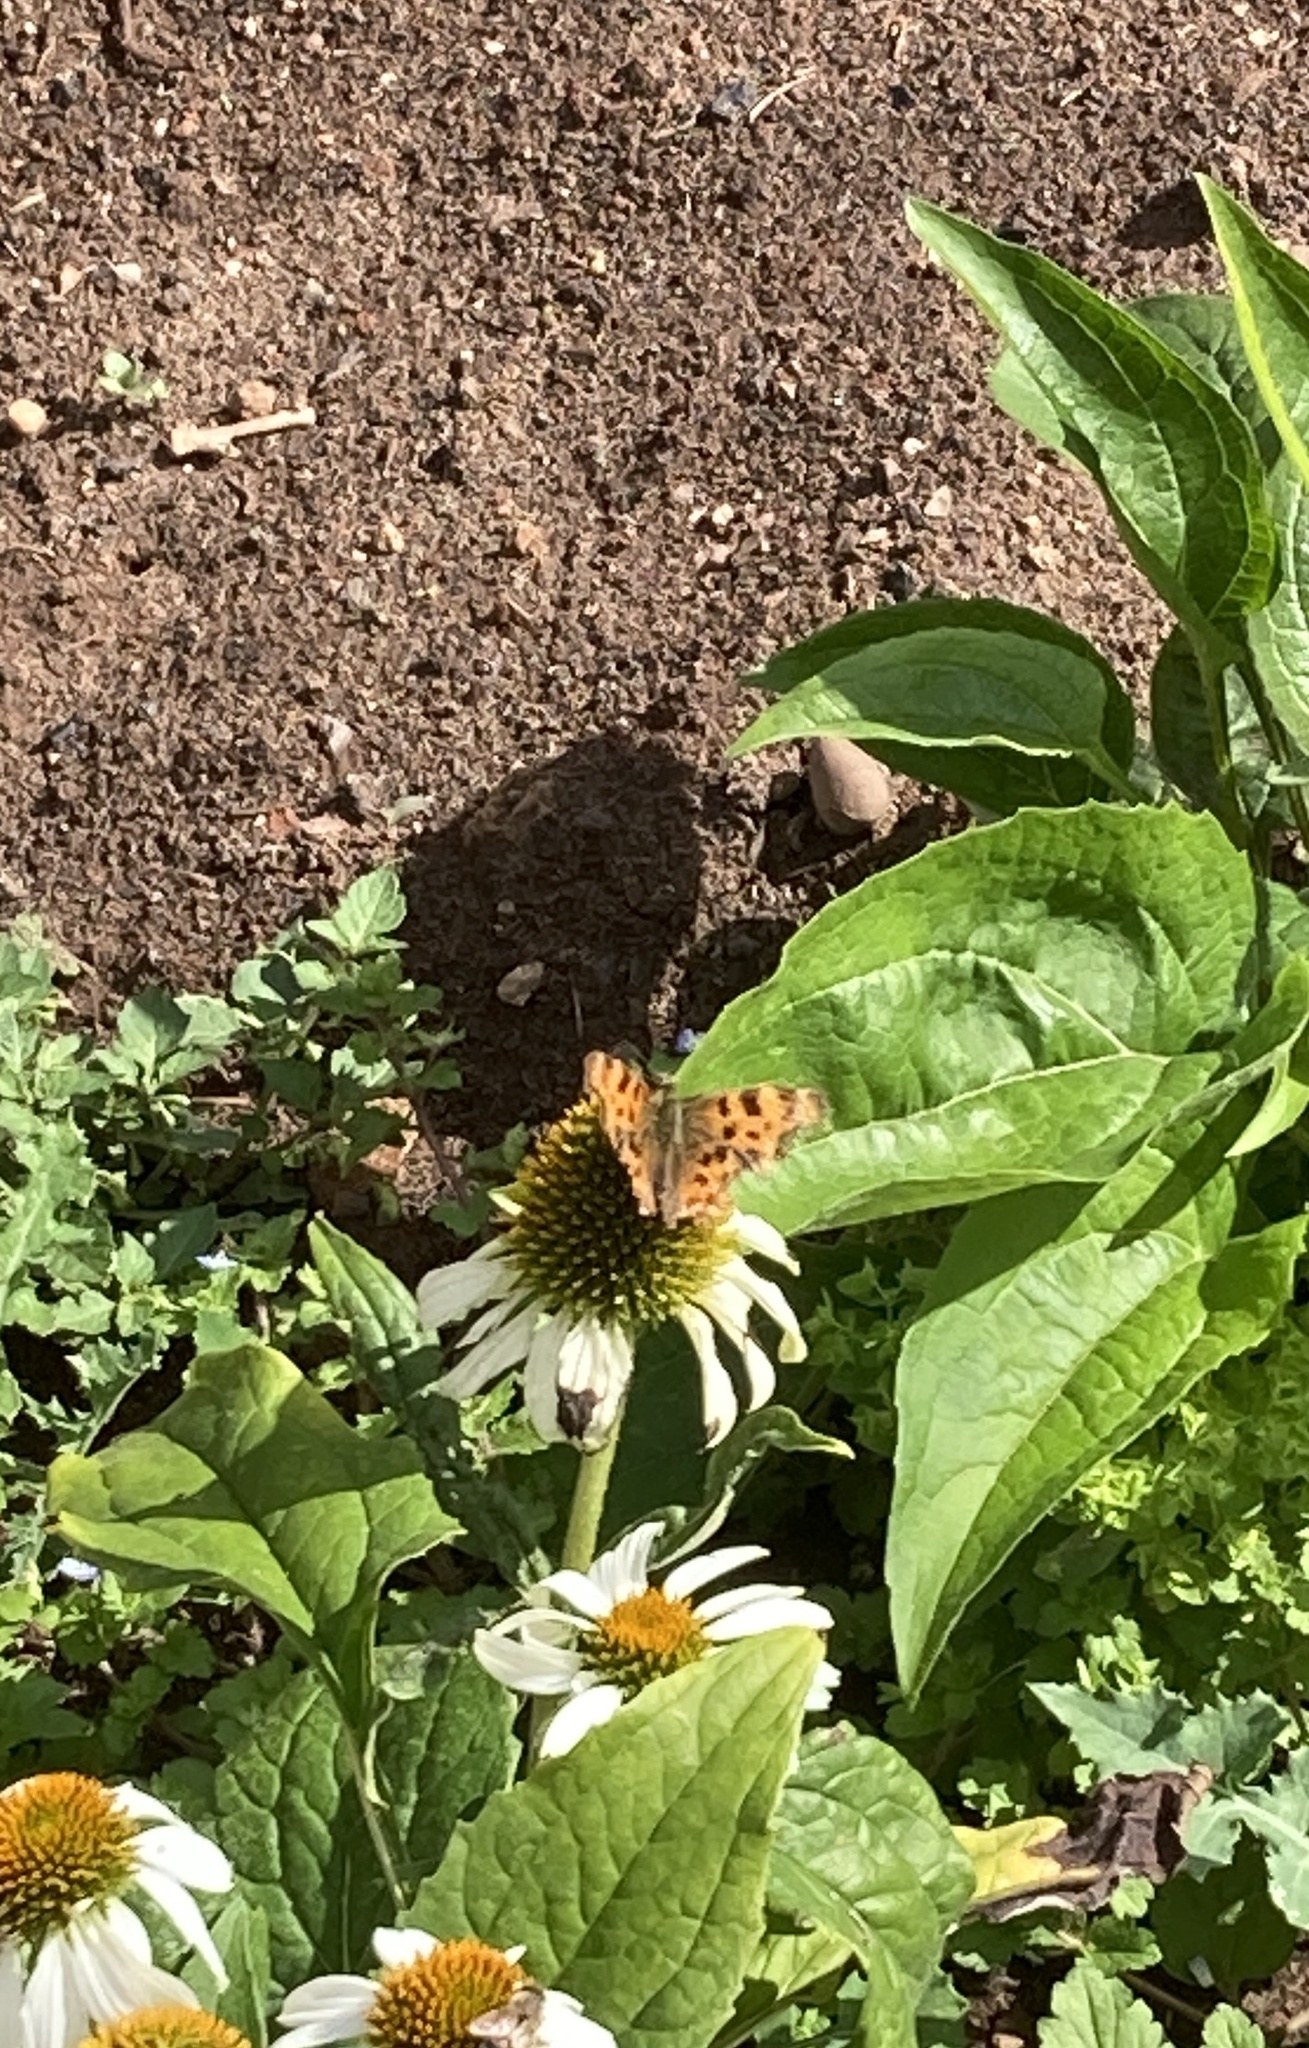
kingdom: Animalia
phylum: Arthropoda
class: Insecta
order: Lepidoptera
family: Nymphalidae
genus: Polygonia
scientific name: Polygonia c-album
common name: Comma
